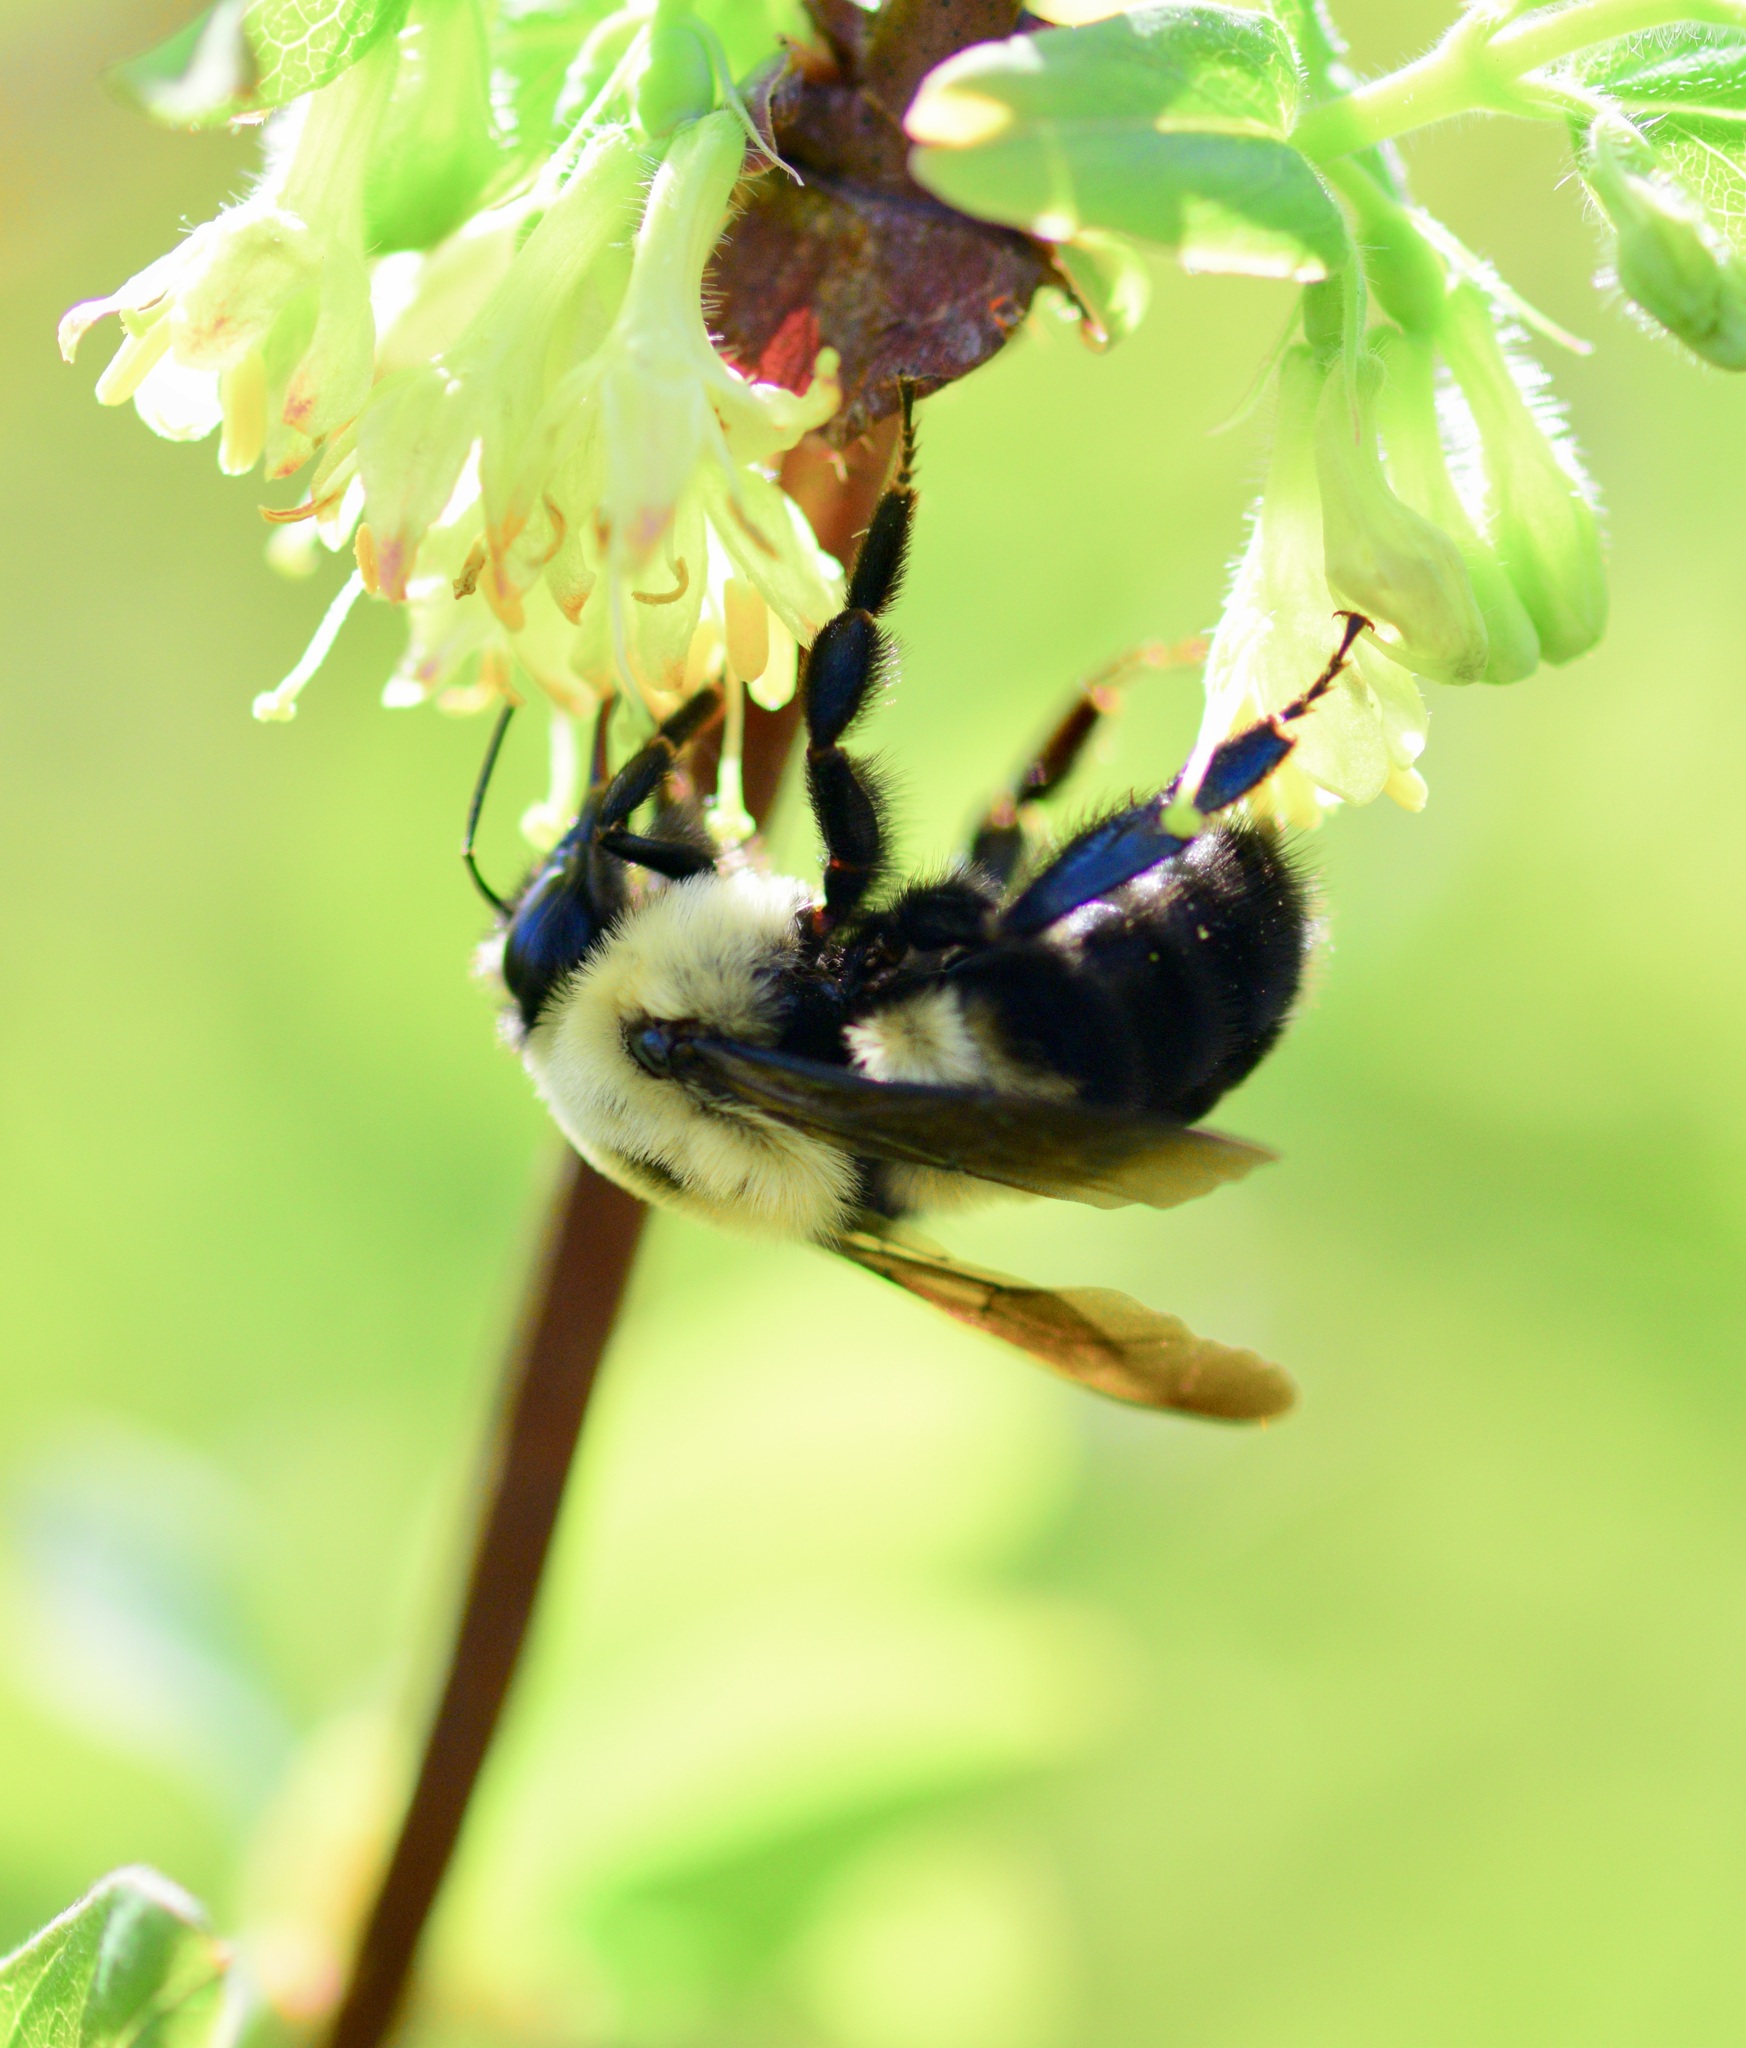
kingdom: Animalia
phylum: Arthropoda
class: Insecta
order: Hymenoptera
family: Apidae
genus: Bombus
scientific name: Bombus bimaculatus
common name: Two-spotted bumble bee
